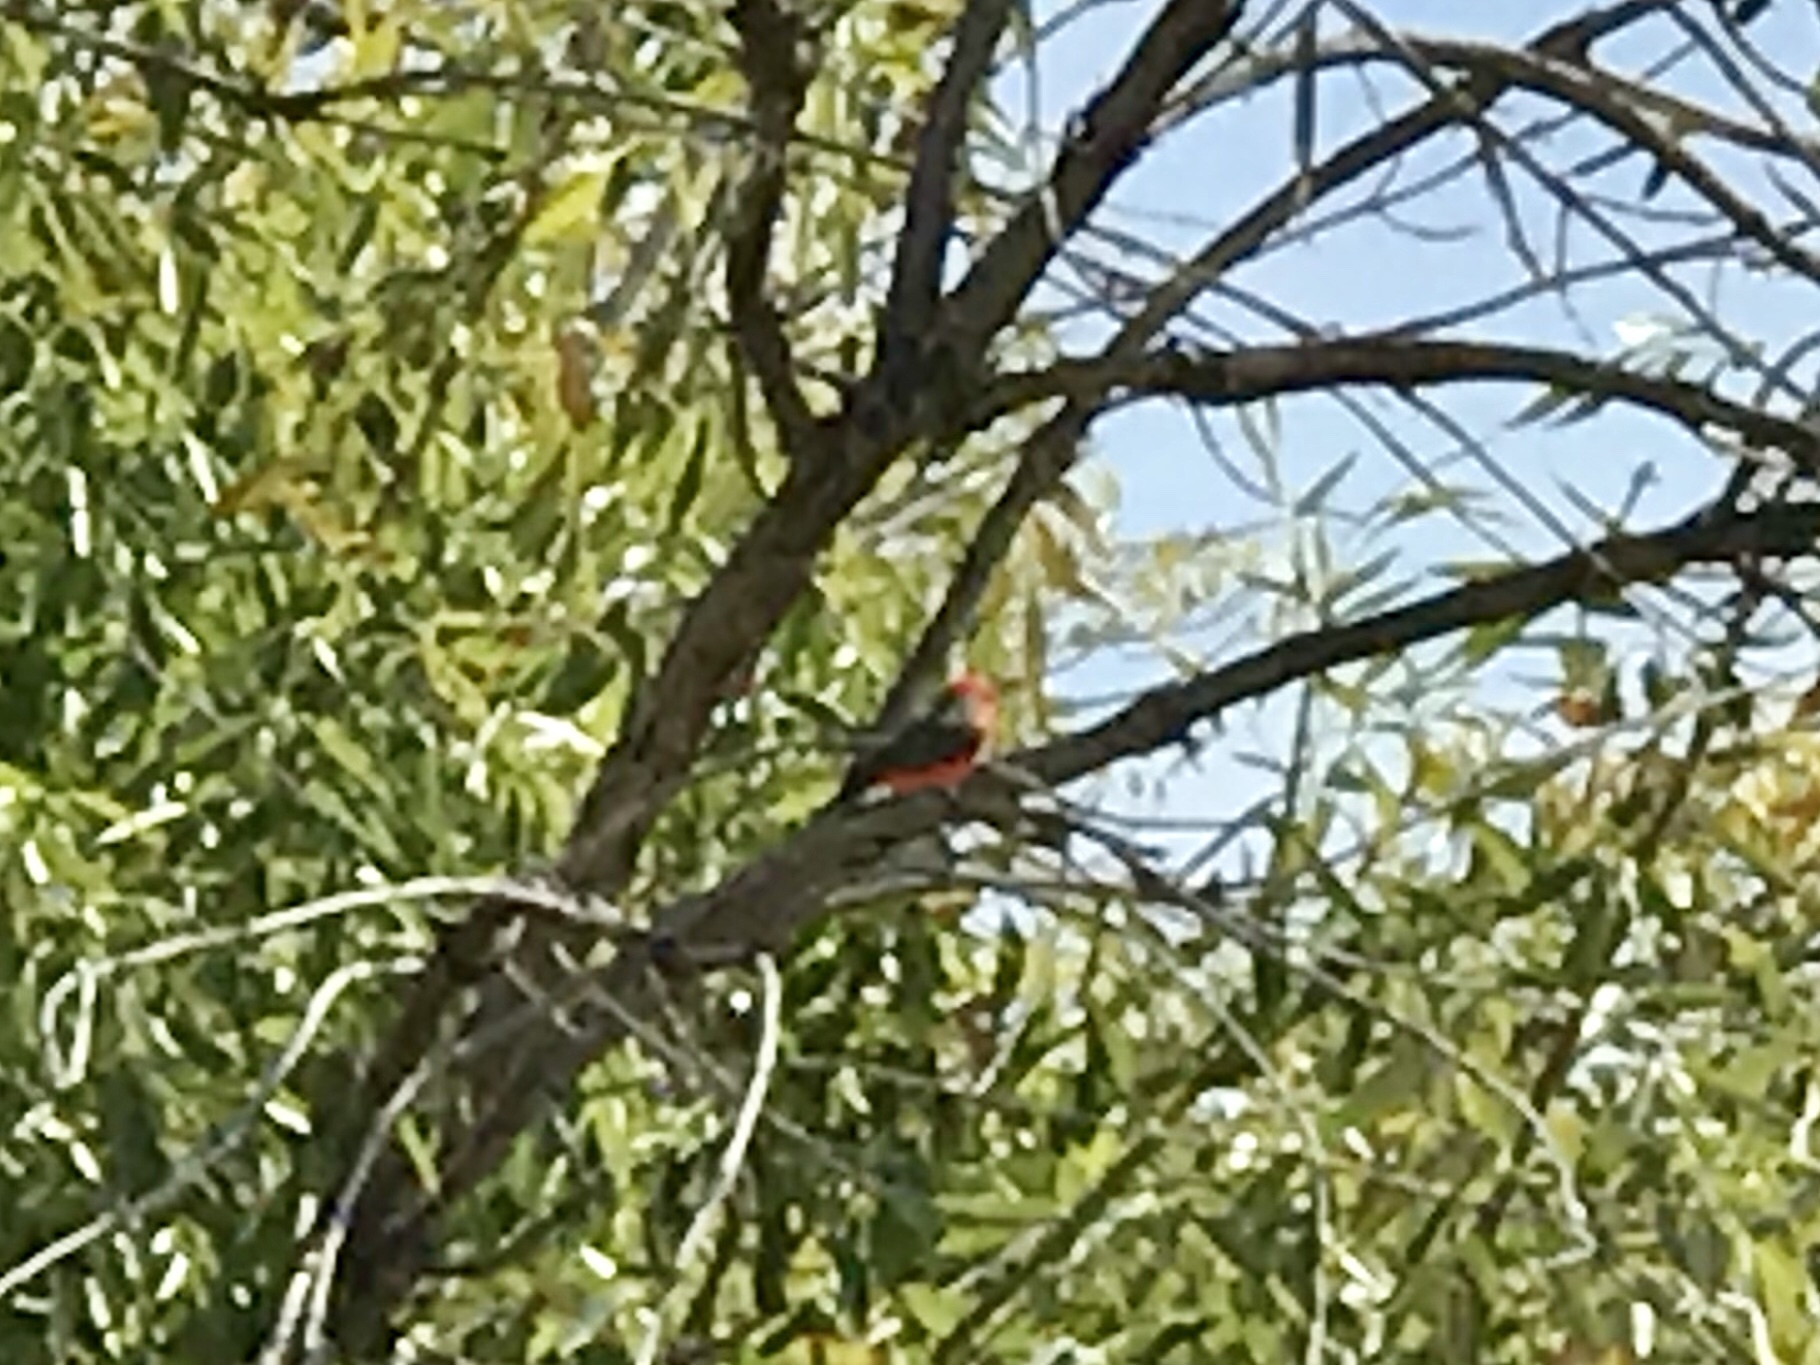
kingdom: Animalia
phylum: Chordata
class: Aves
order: Passeriformes
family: Tyrannidae
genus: Pyrocephalus
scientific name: Pyrocephalus rubinus
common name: Vermilion flycatcher
